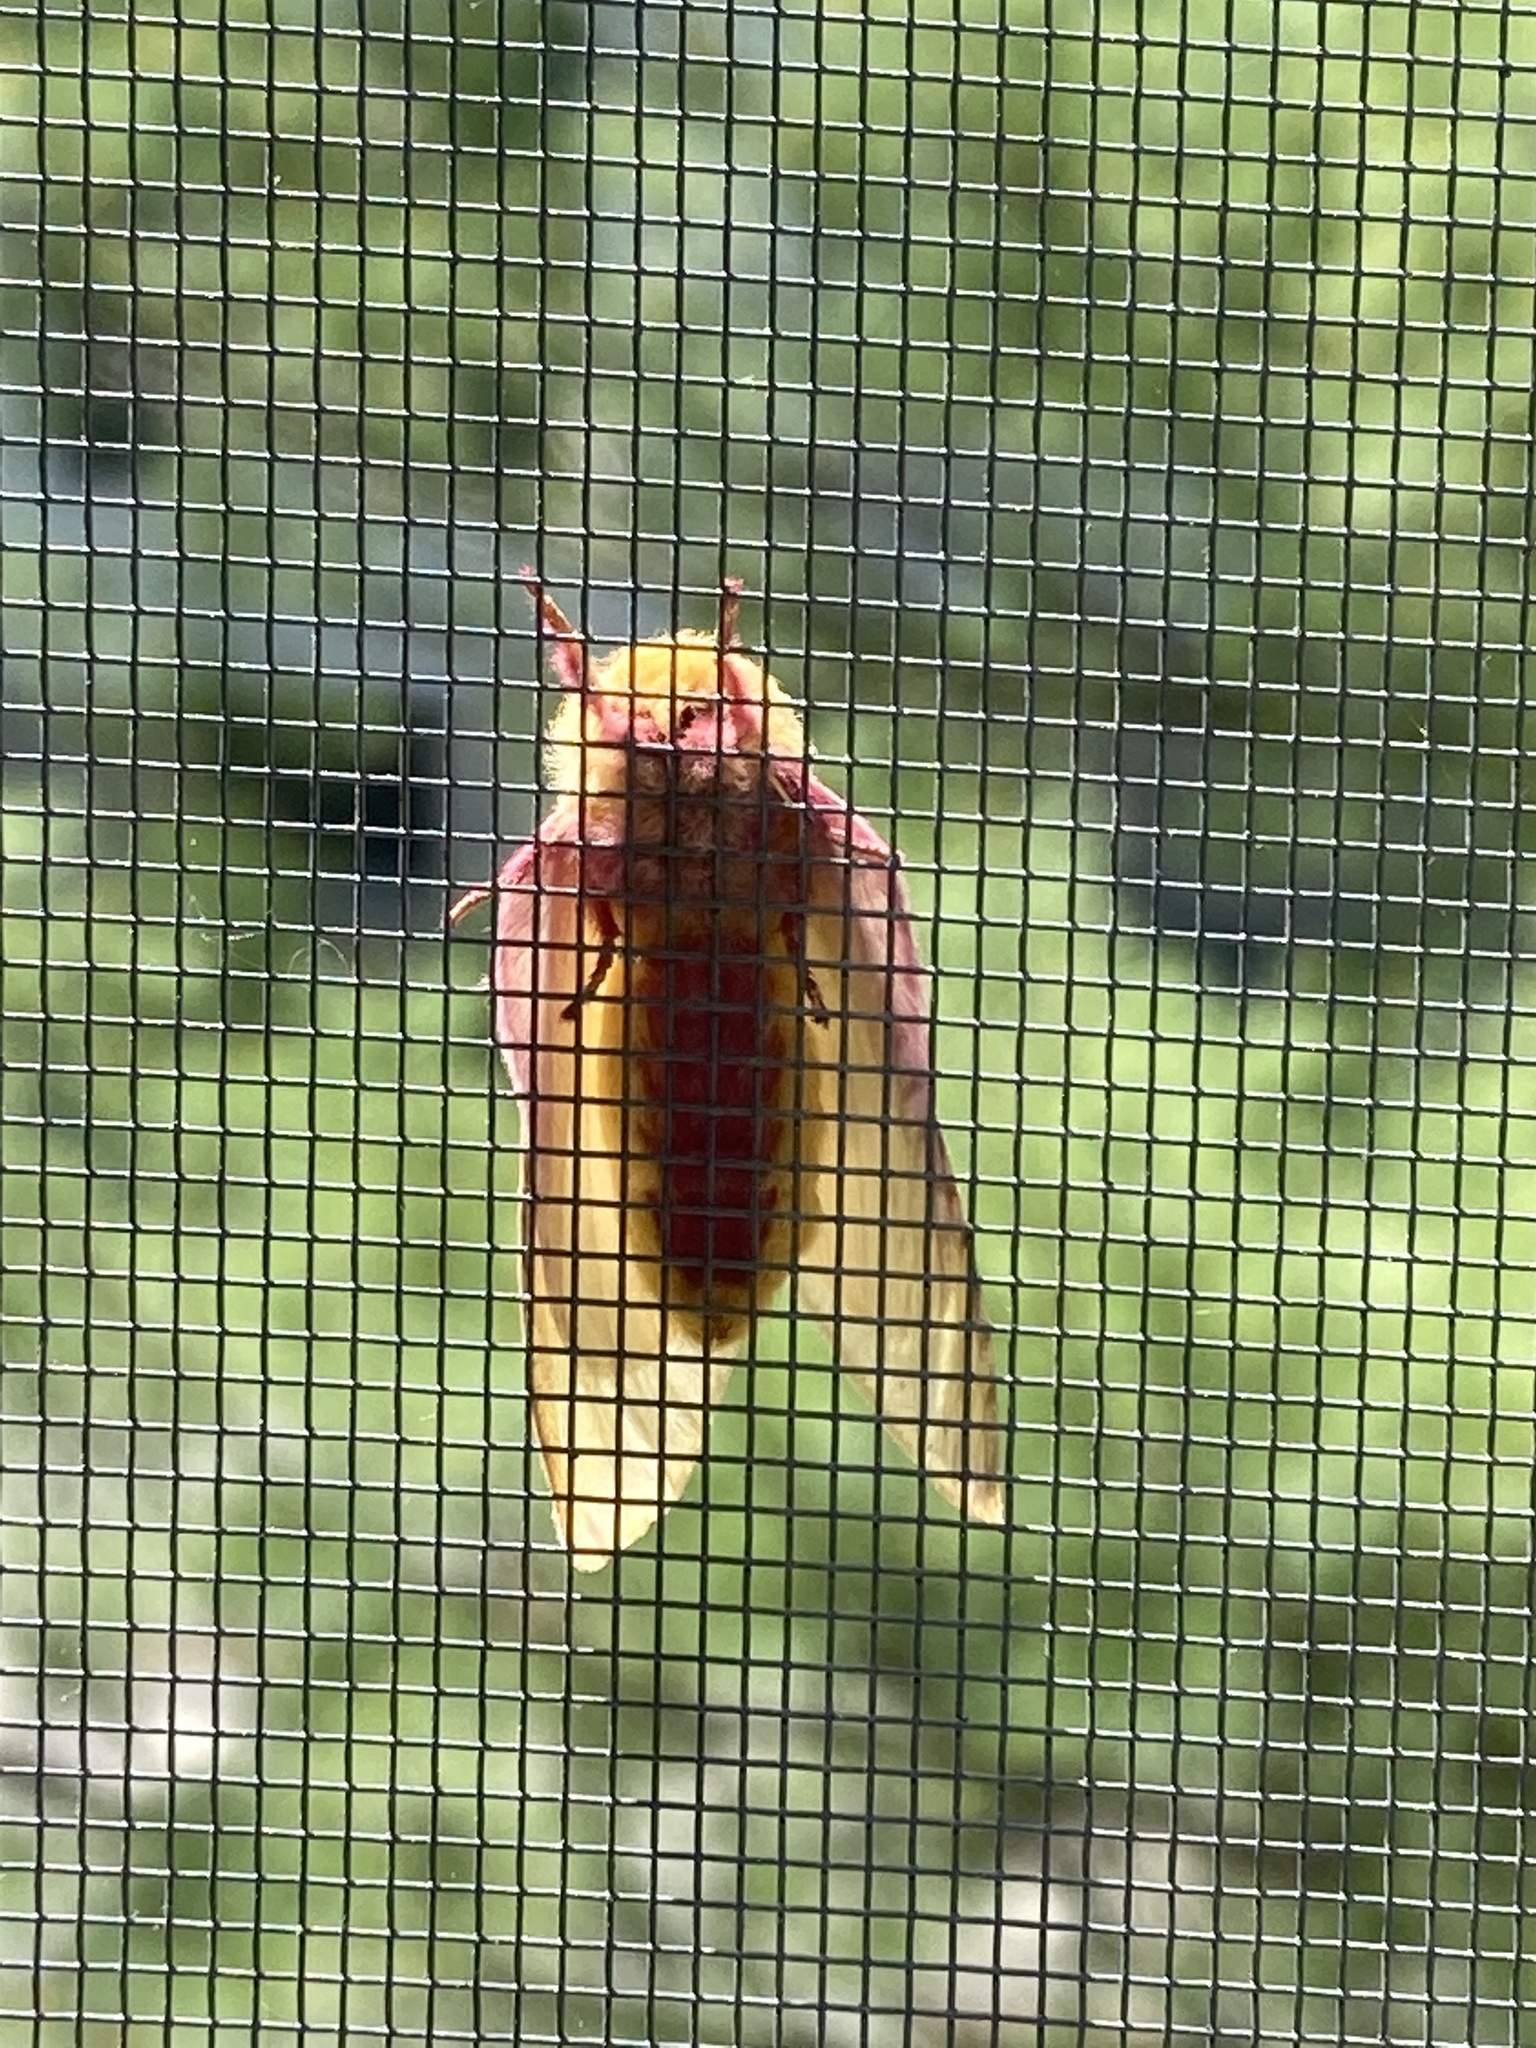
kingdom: Animalia
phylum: Arthropoda
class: Insecta
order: Lepidoptera
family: Saturniidae
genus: Dryocampa
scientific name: Dryocampa rubicunda
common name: Rosy maple moth
